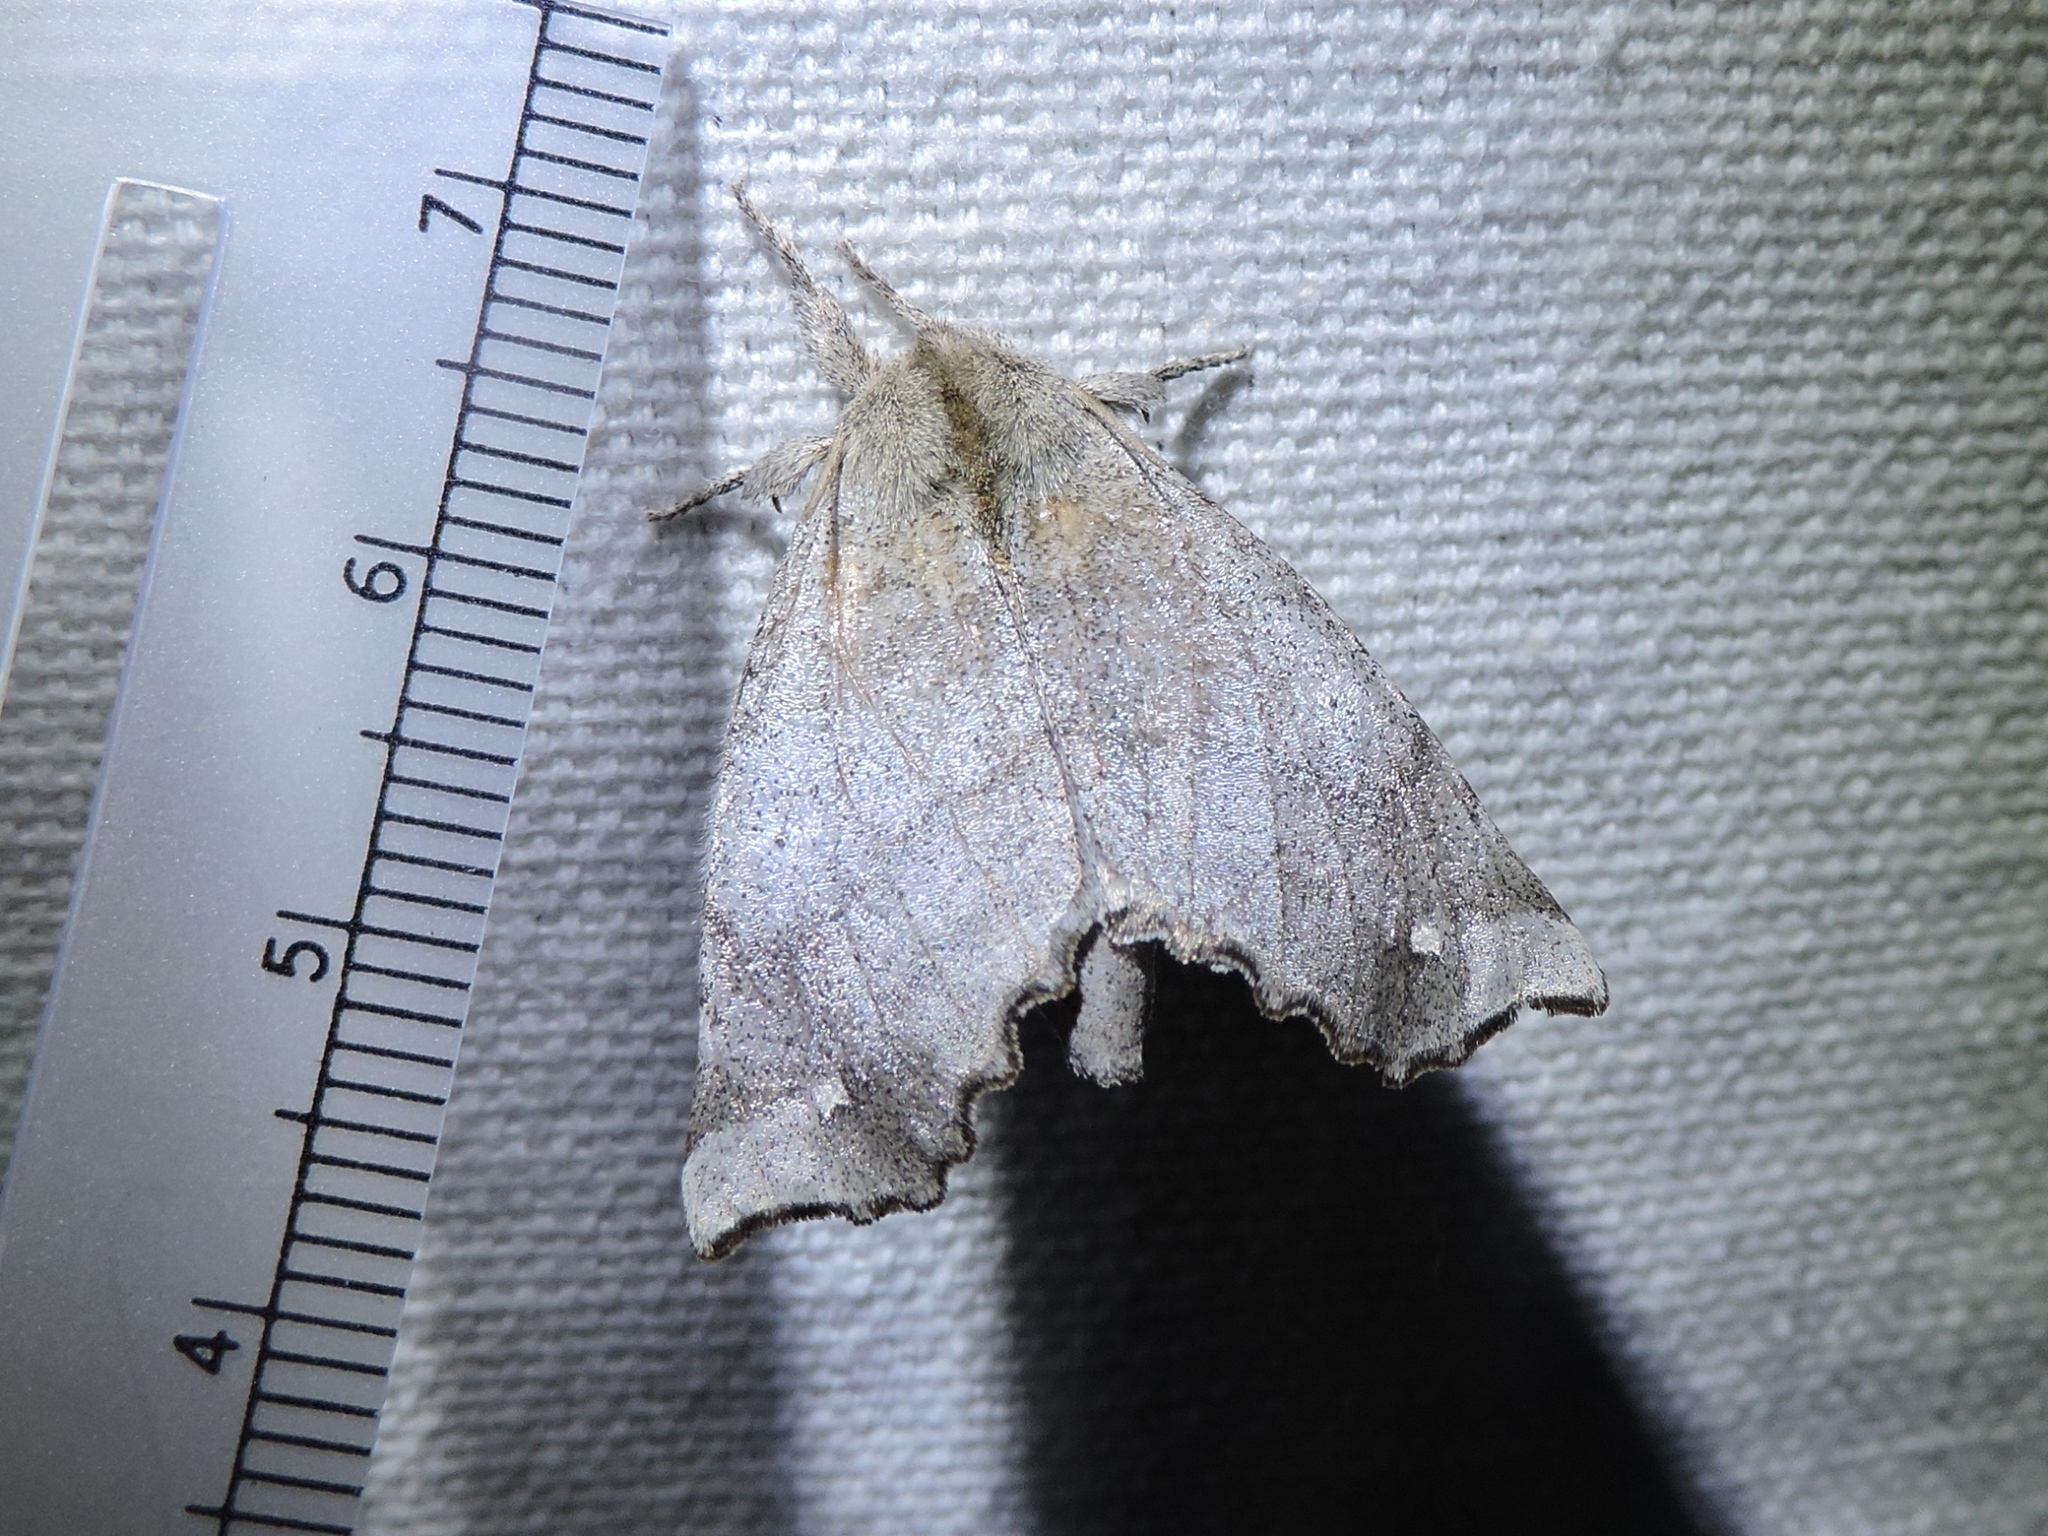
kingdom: Animalia
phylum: Arthropoda
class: Insecta
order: Lepidoptera
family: Apatelodidae
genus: Olceclostera
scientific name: Olceclostera angelica
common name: Angel moth
